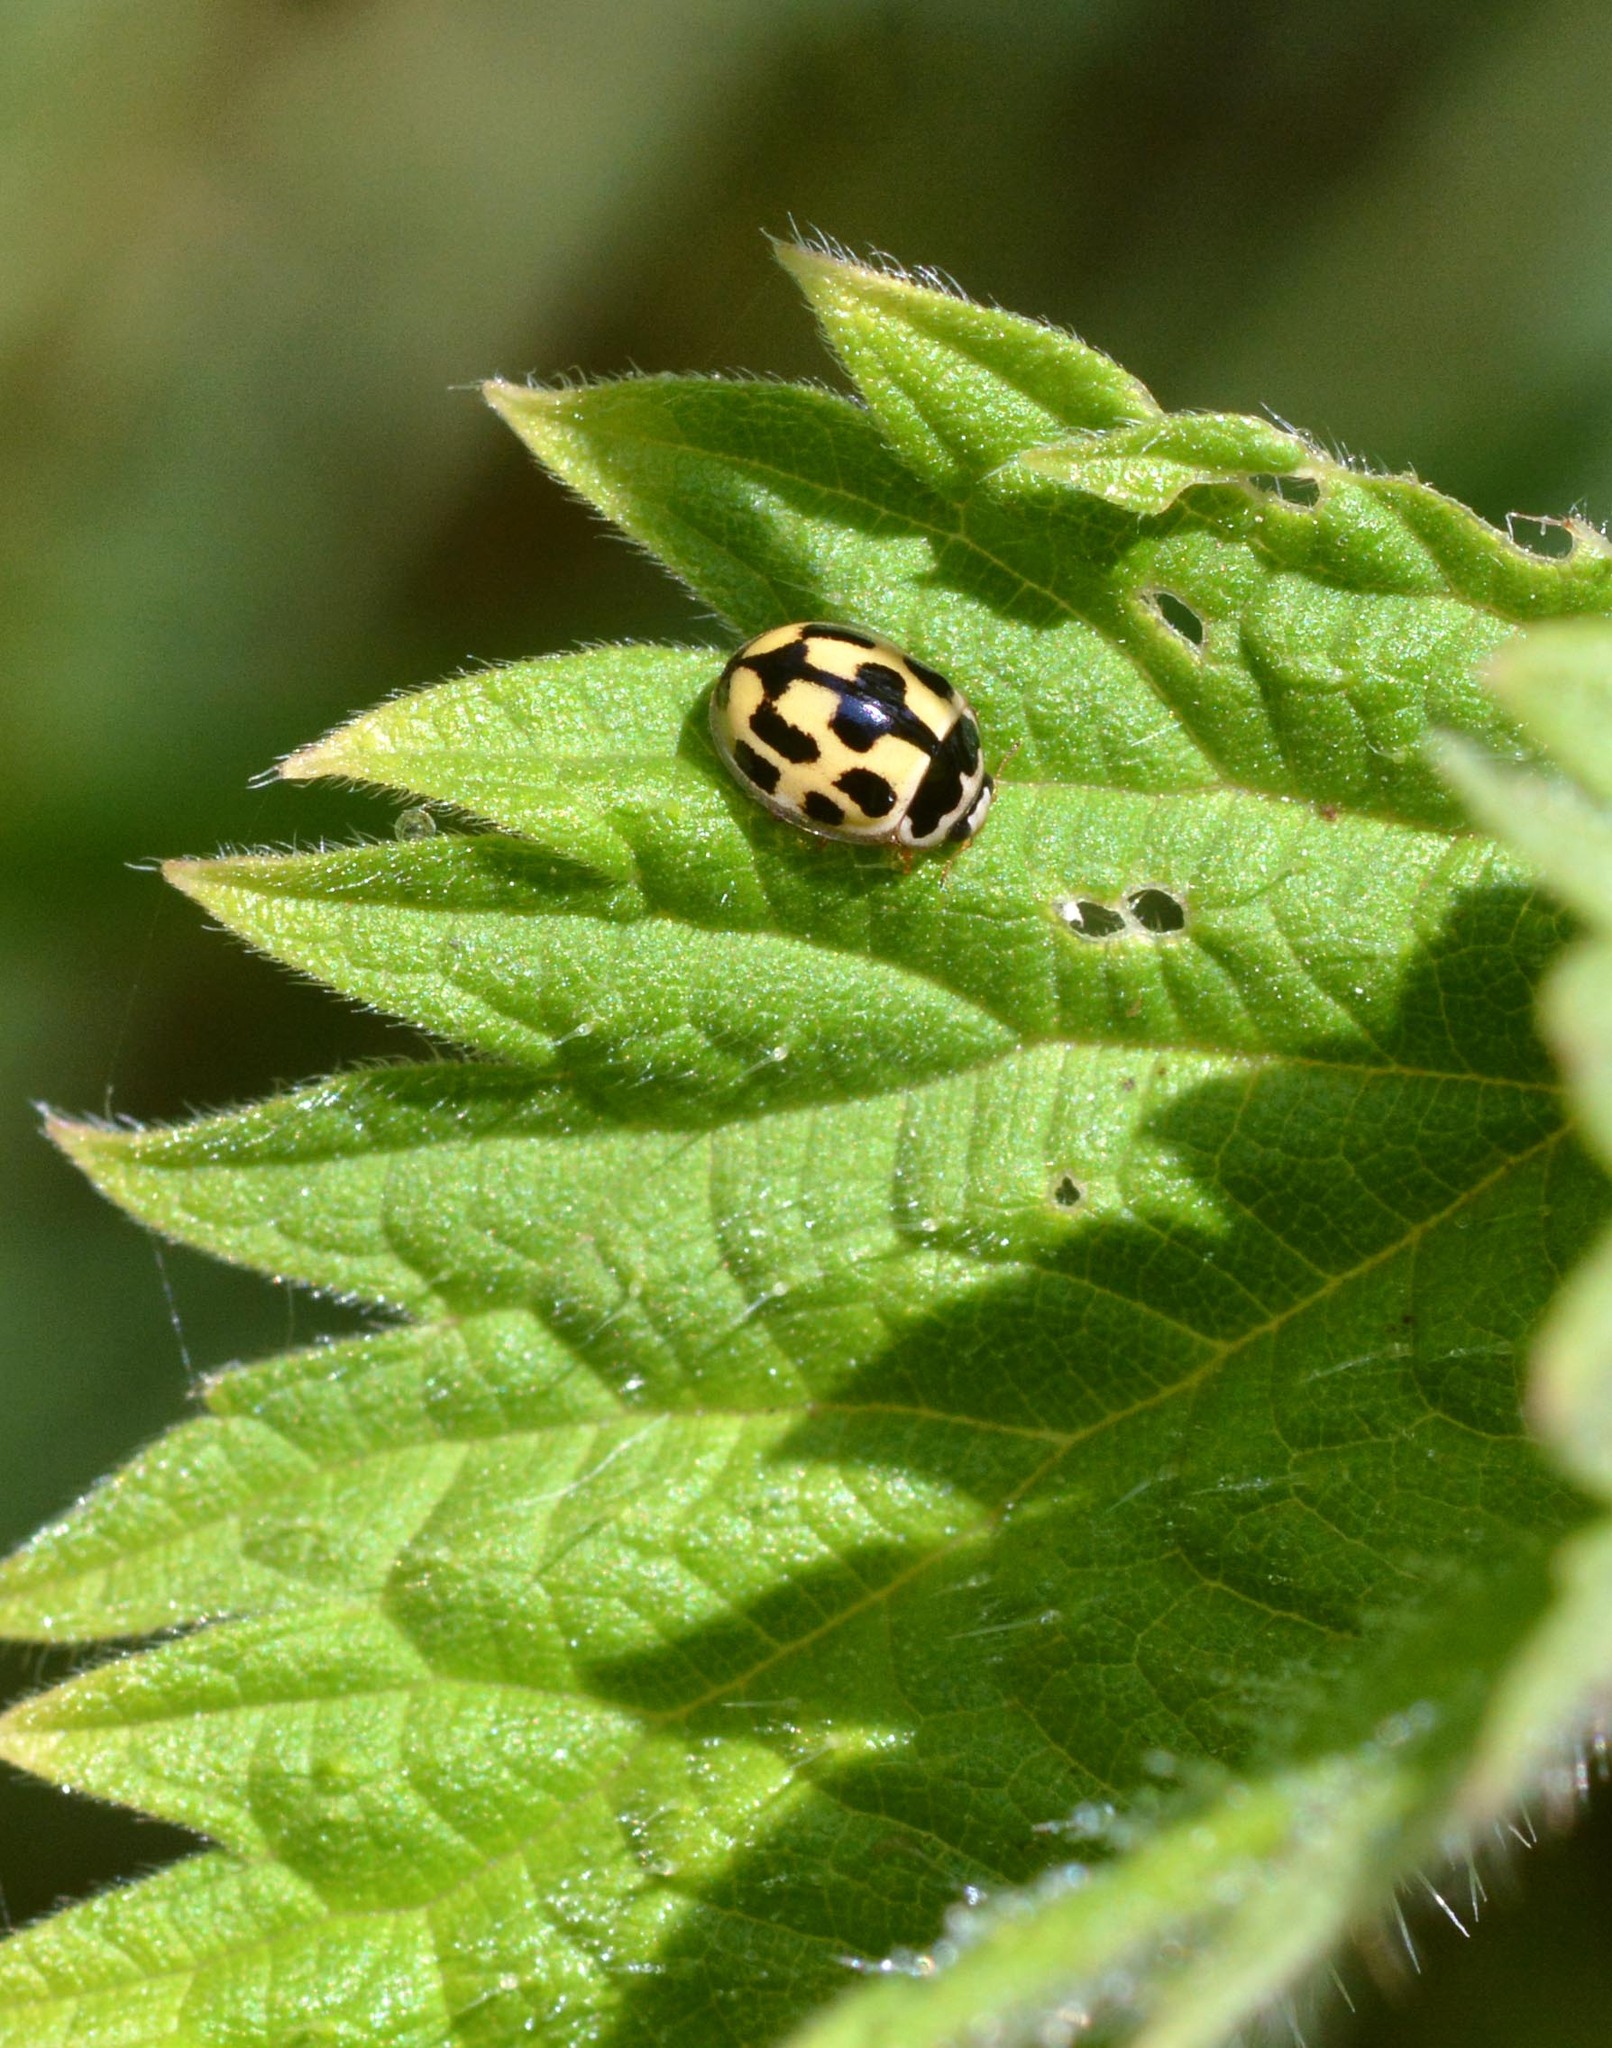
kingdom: Animalia
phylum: Arthropoda
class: Insecta
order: Coleoptera
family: Coccinellidae
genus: Propylaea
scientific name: Propylaea quatuordecimpunctata
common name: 14-spotted ladybird beetle
